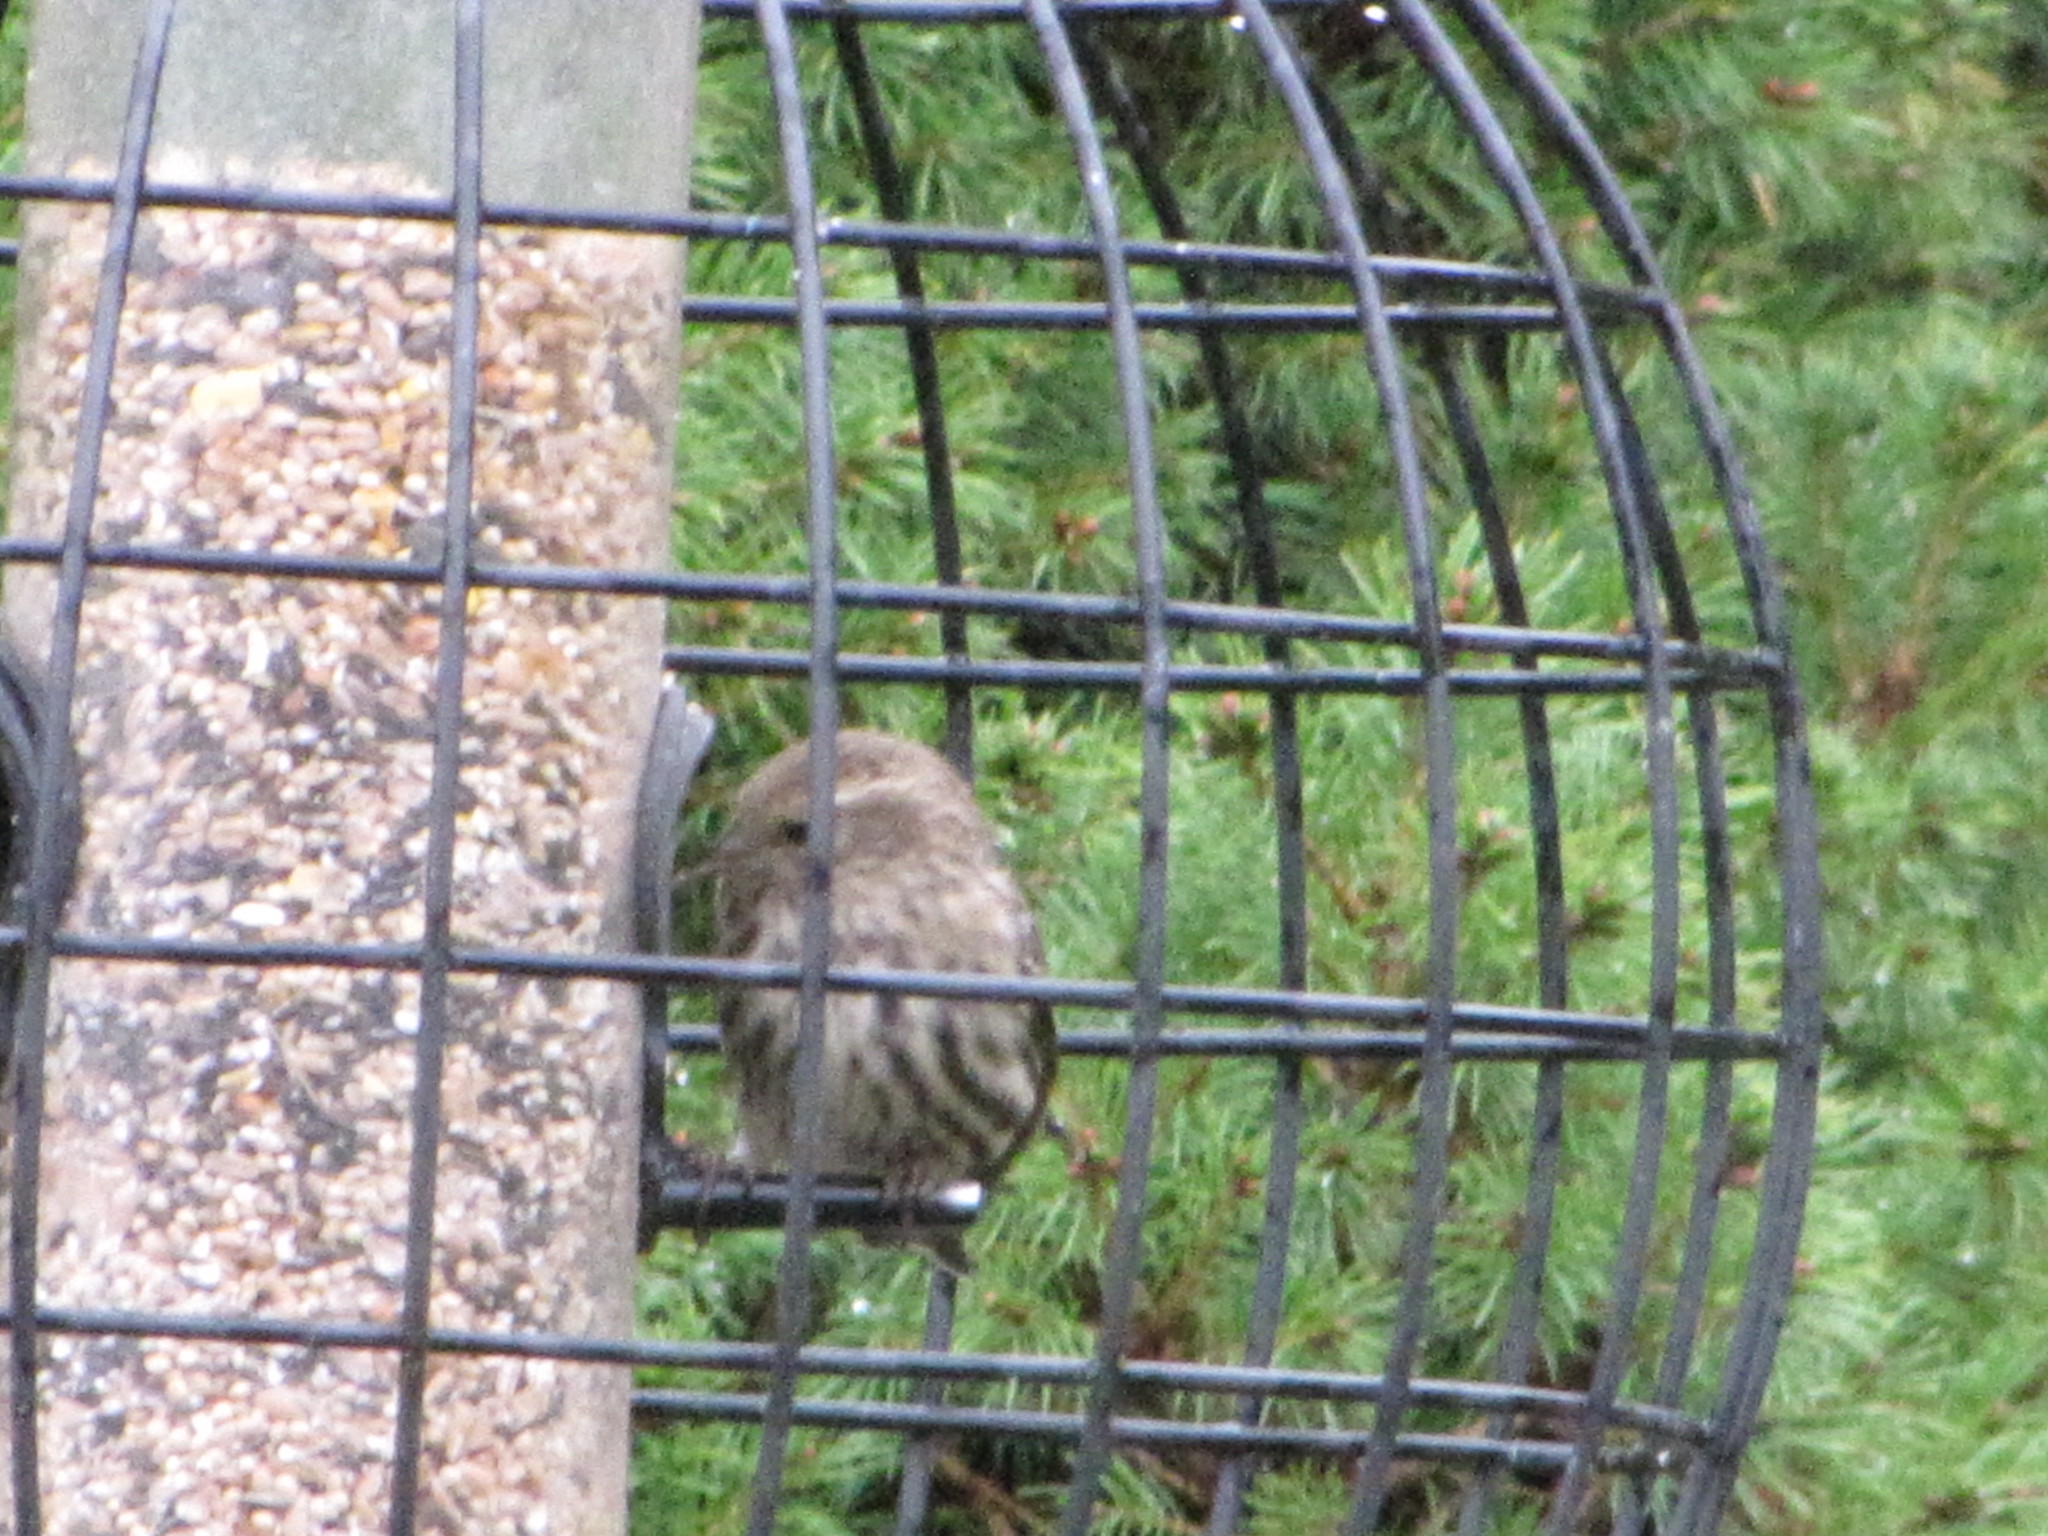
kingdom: Animalia
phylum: Chordata
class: Aves
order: Passeriformes
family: Fringillidae
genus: Spinus
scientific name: Spinus pinus
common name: Pine siskin
